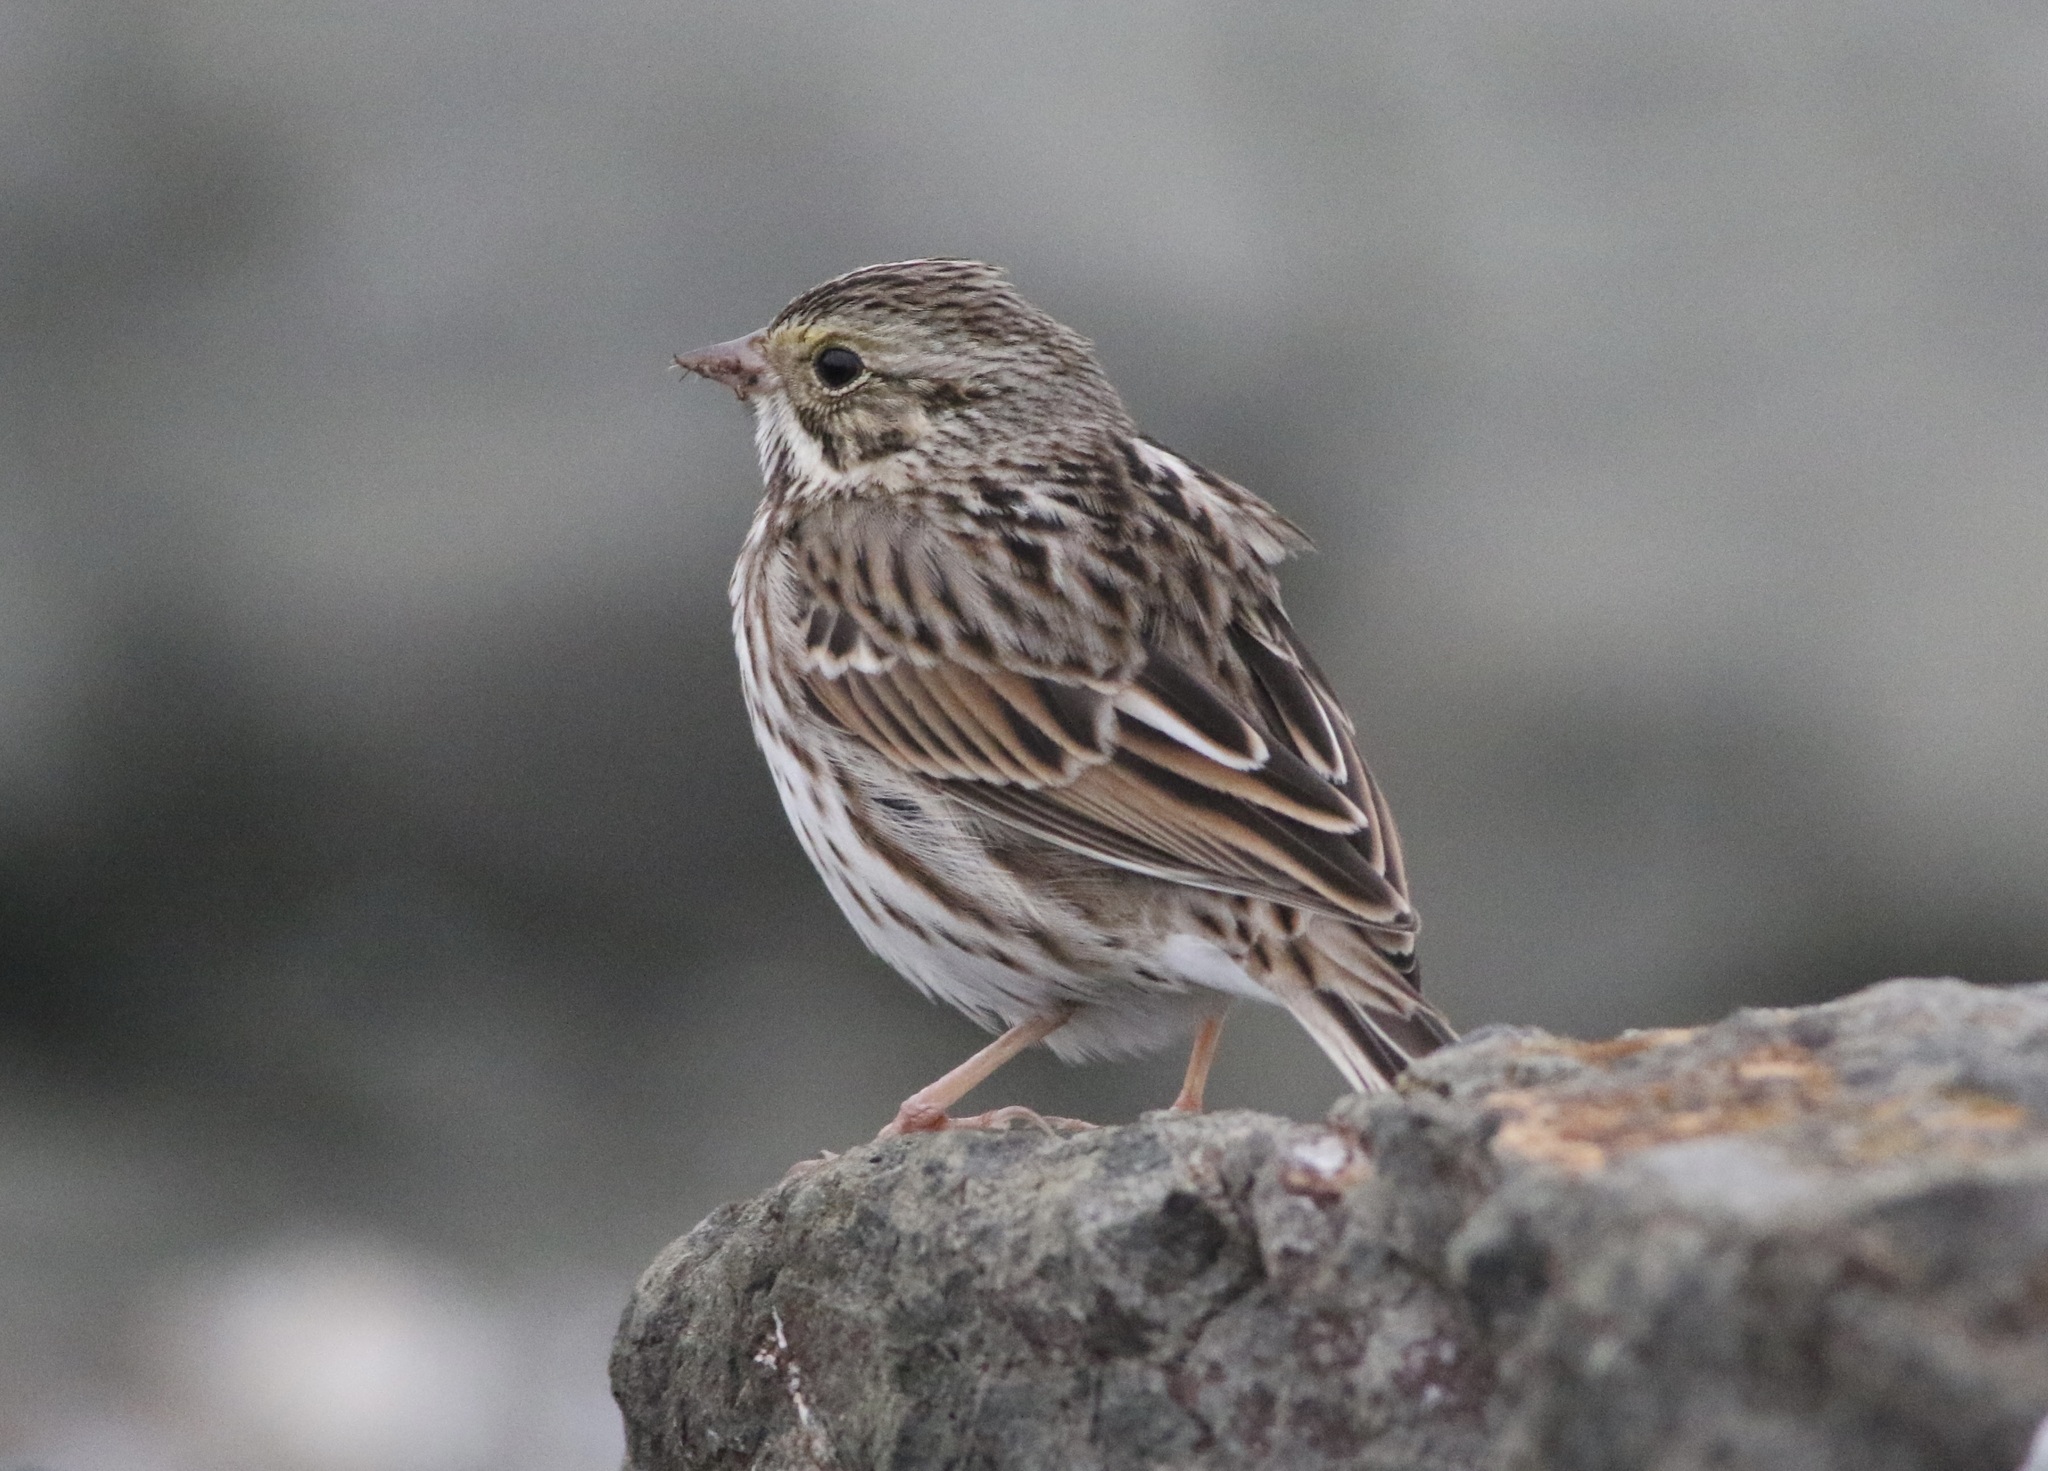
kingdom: Animalia
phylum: Chordata
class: Aves
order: Passeriformes
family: Passerellidae
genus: Passerculus
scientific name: Passerculus sandwichensis
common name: Savannah sparrow
